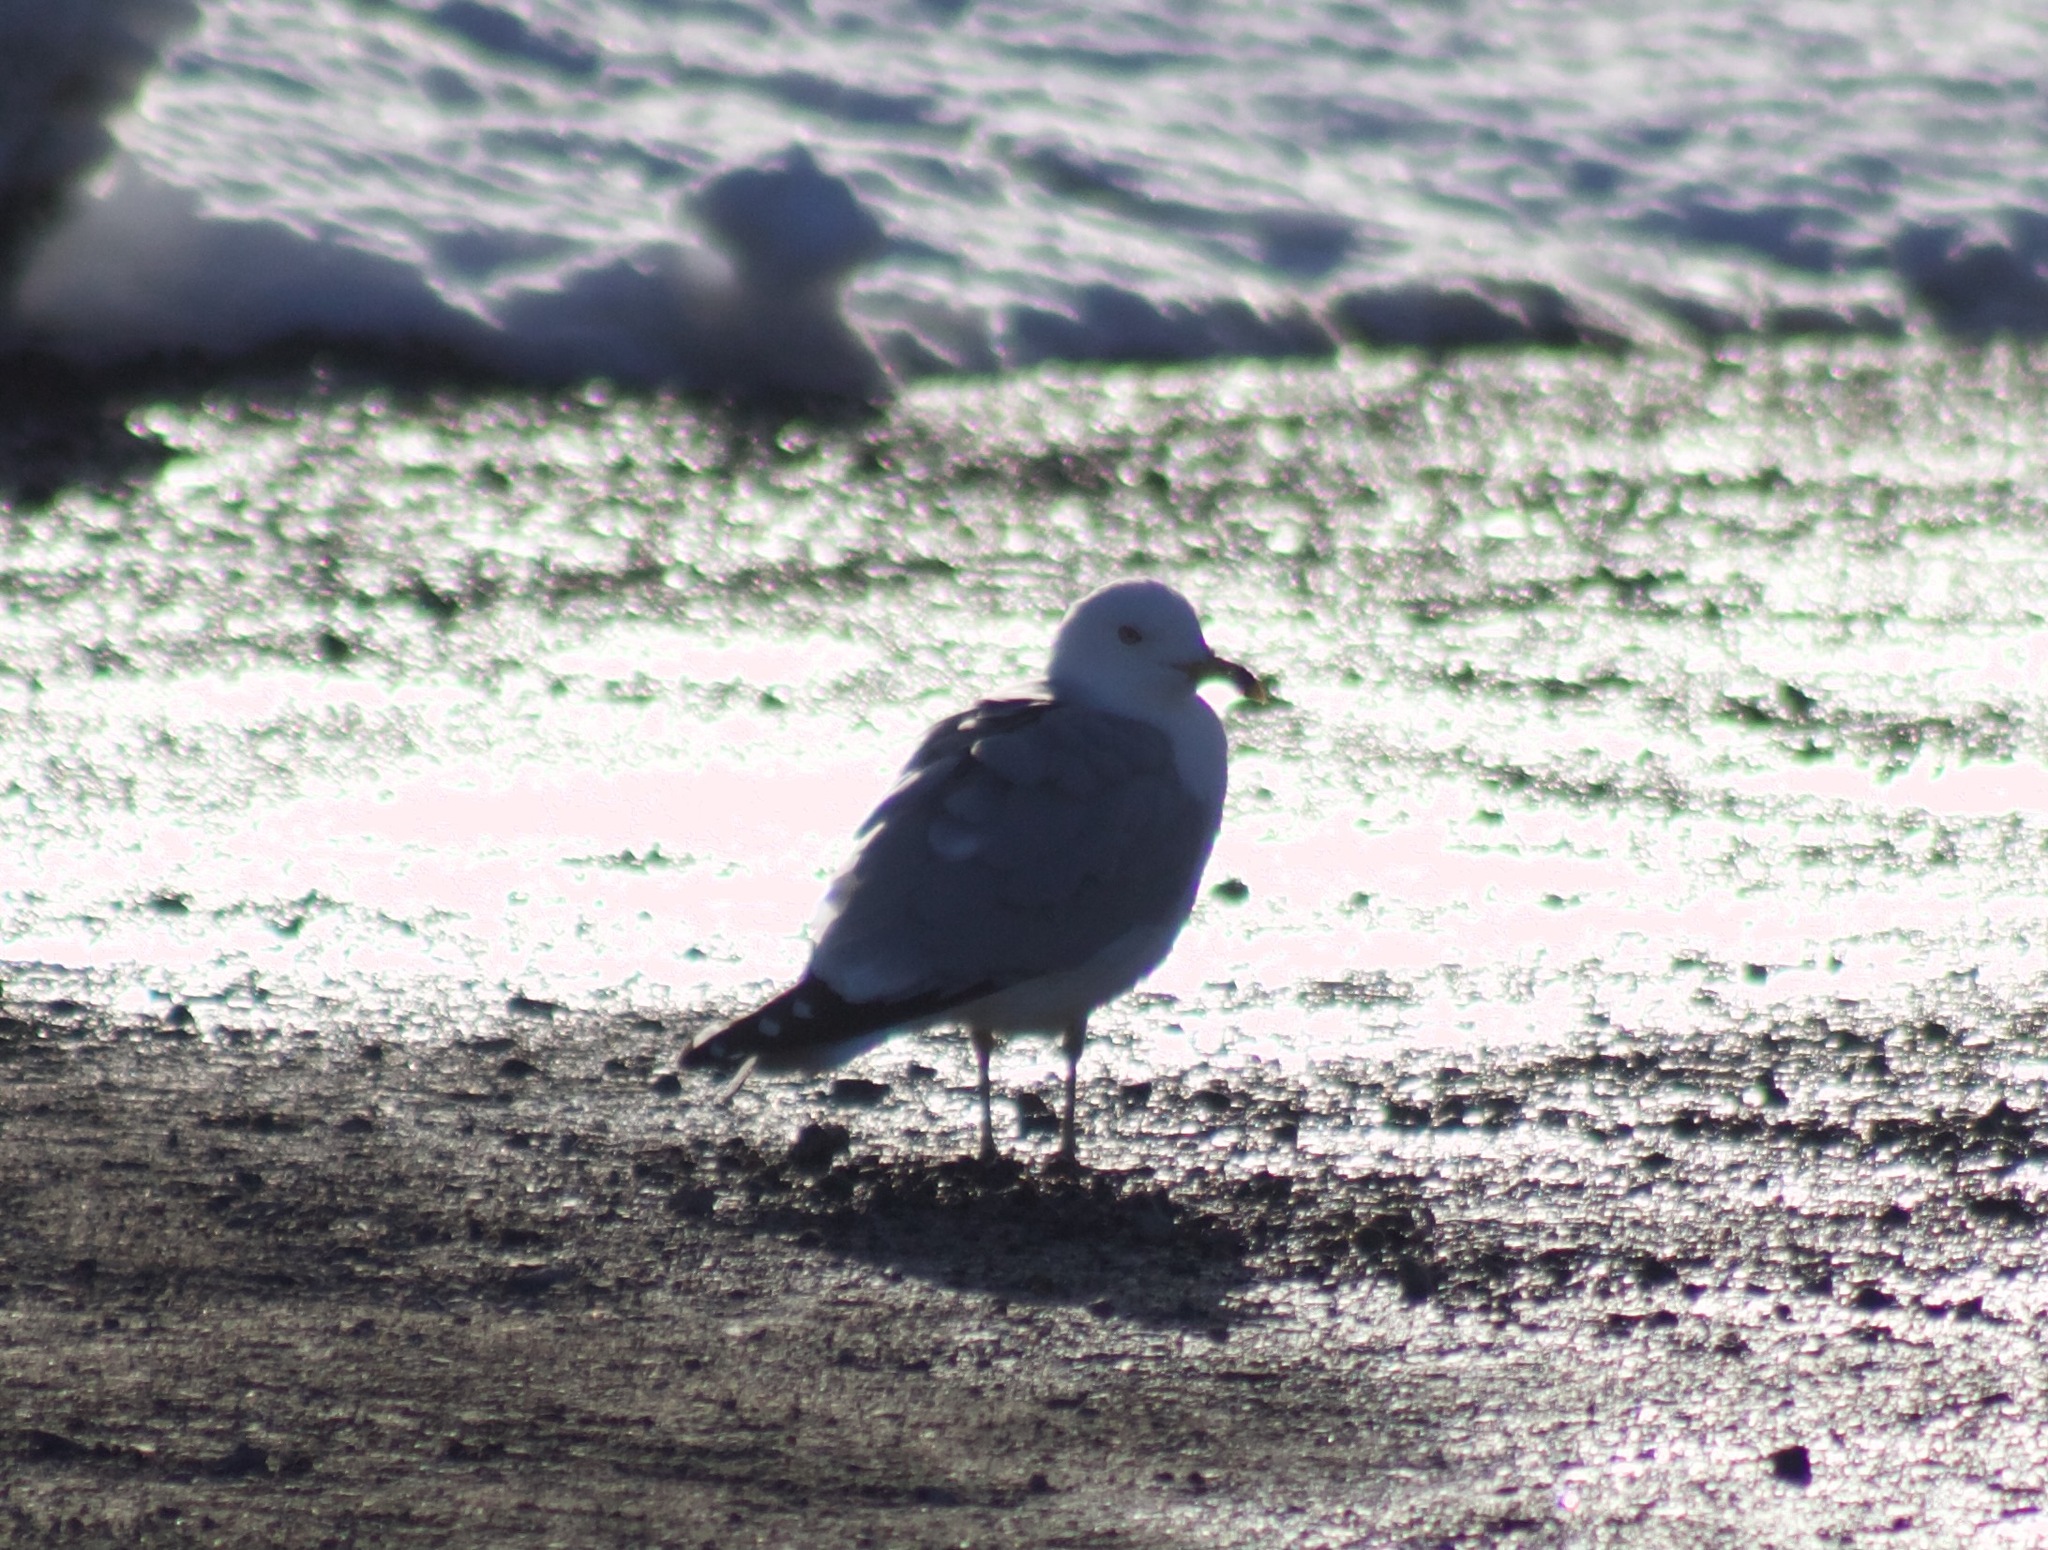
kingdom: Animalia
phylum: Chordata
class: Aves
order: Charadriiformes
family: Laridae
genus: Larus
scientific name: Larus argentatus
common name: Herring gull
